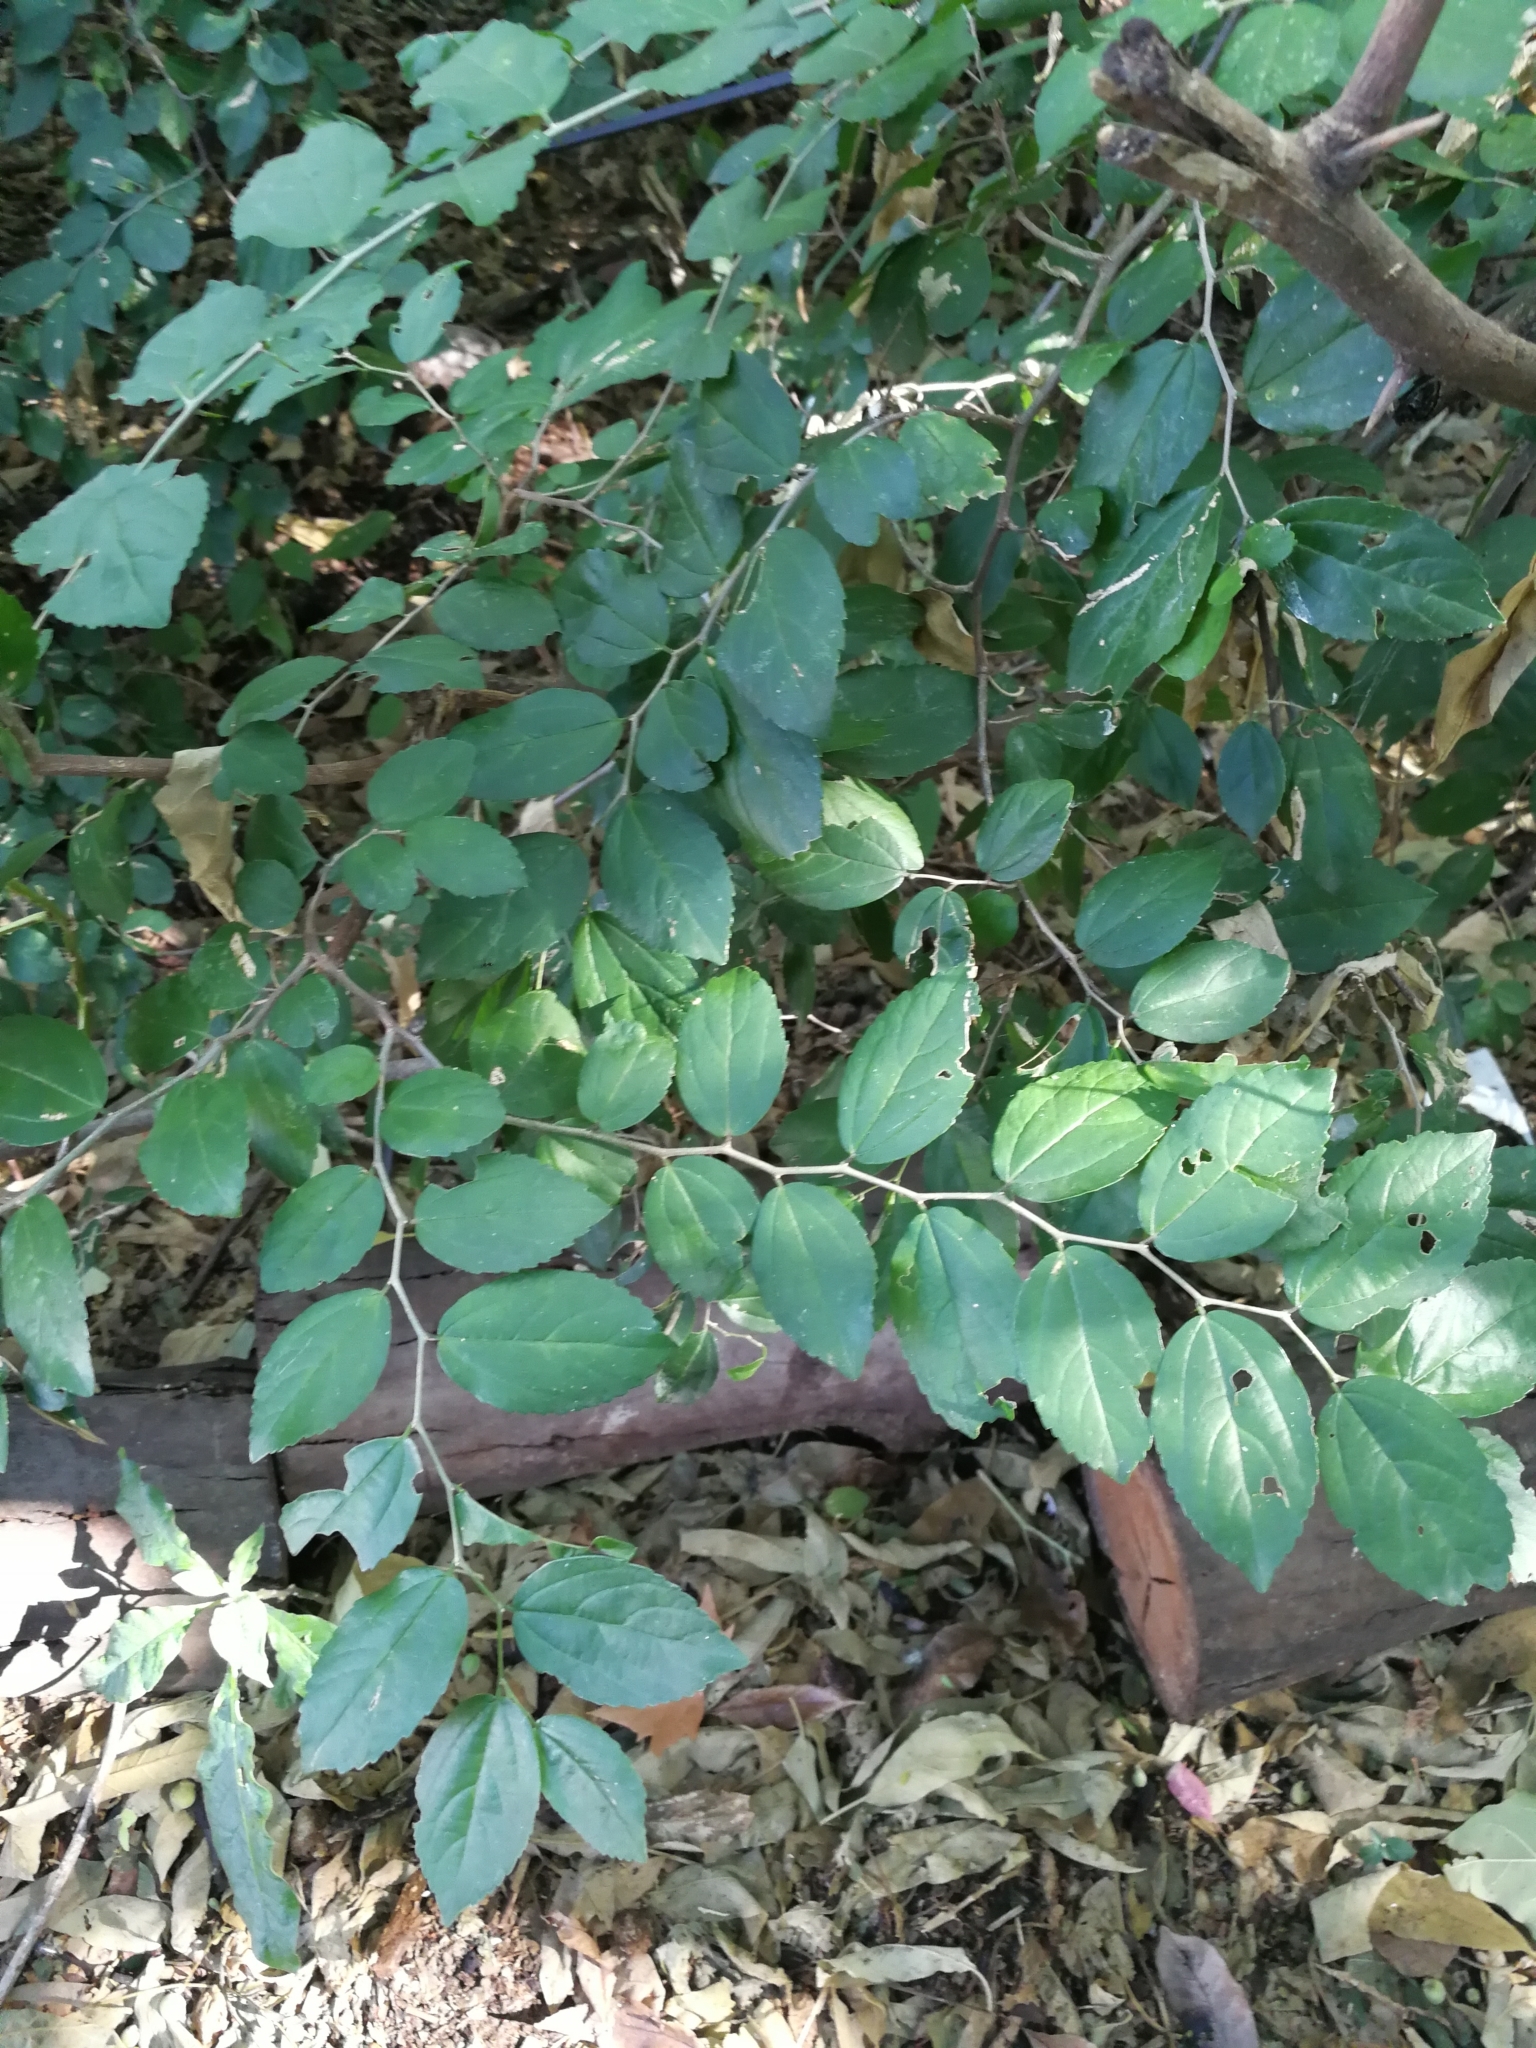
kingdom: Plantae
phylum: Tracheophyta
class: Magnoliopsida
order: Rosales
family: Cannabaceae
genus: Celtis
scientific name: Celtis tala
